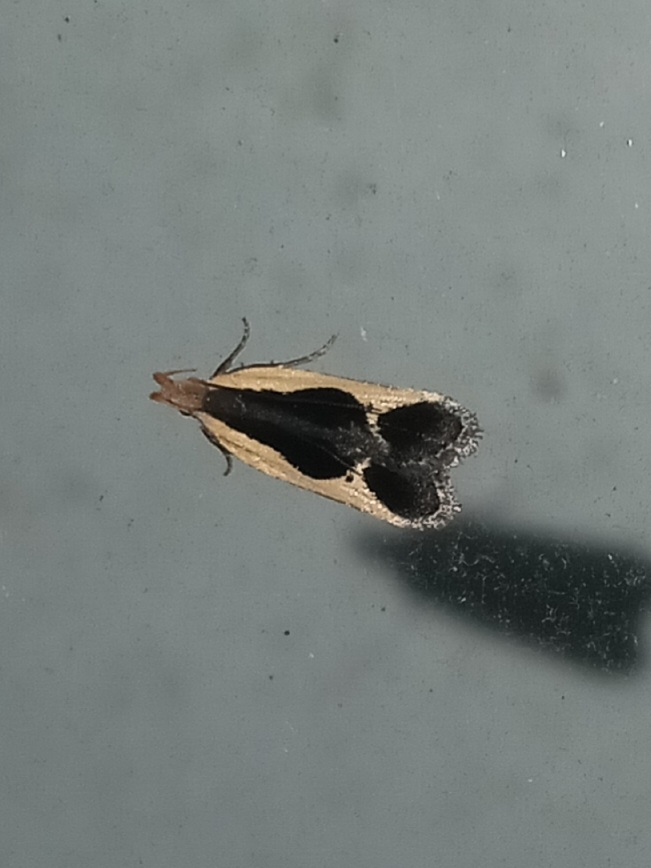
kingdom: Animalia
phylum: Arthropoda
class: Insecta
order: Lepidoptera
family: Gelechiidae
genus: Dichomeris
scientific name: Dichomeris flavocostella
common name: Cream-edged dichomeris moth
